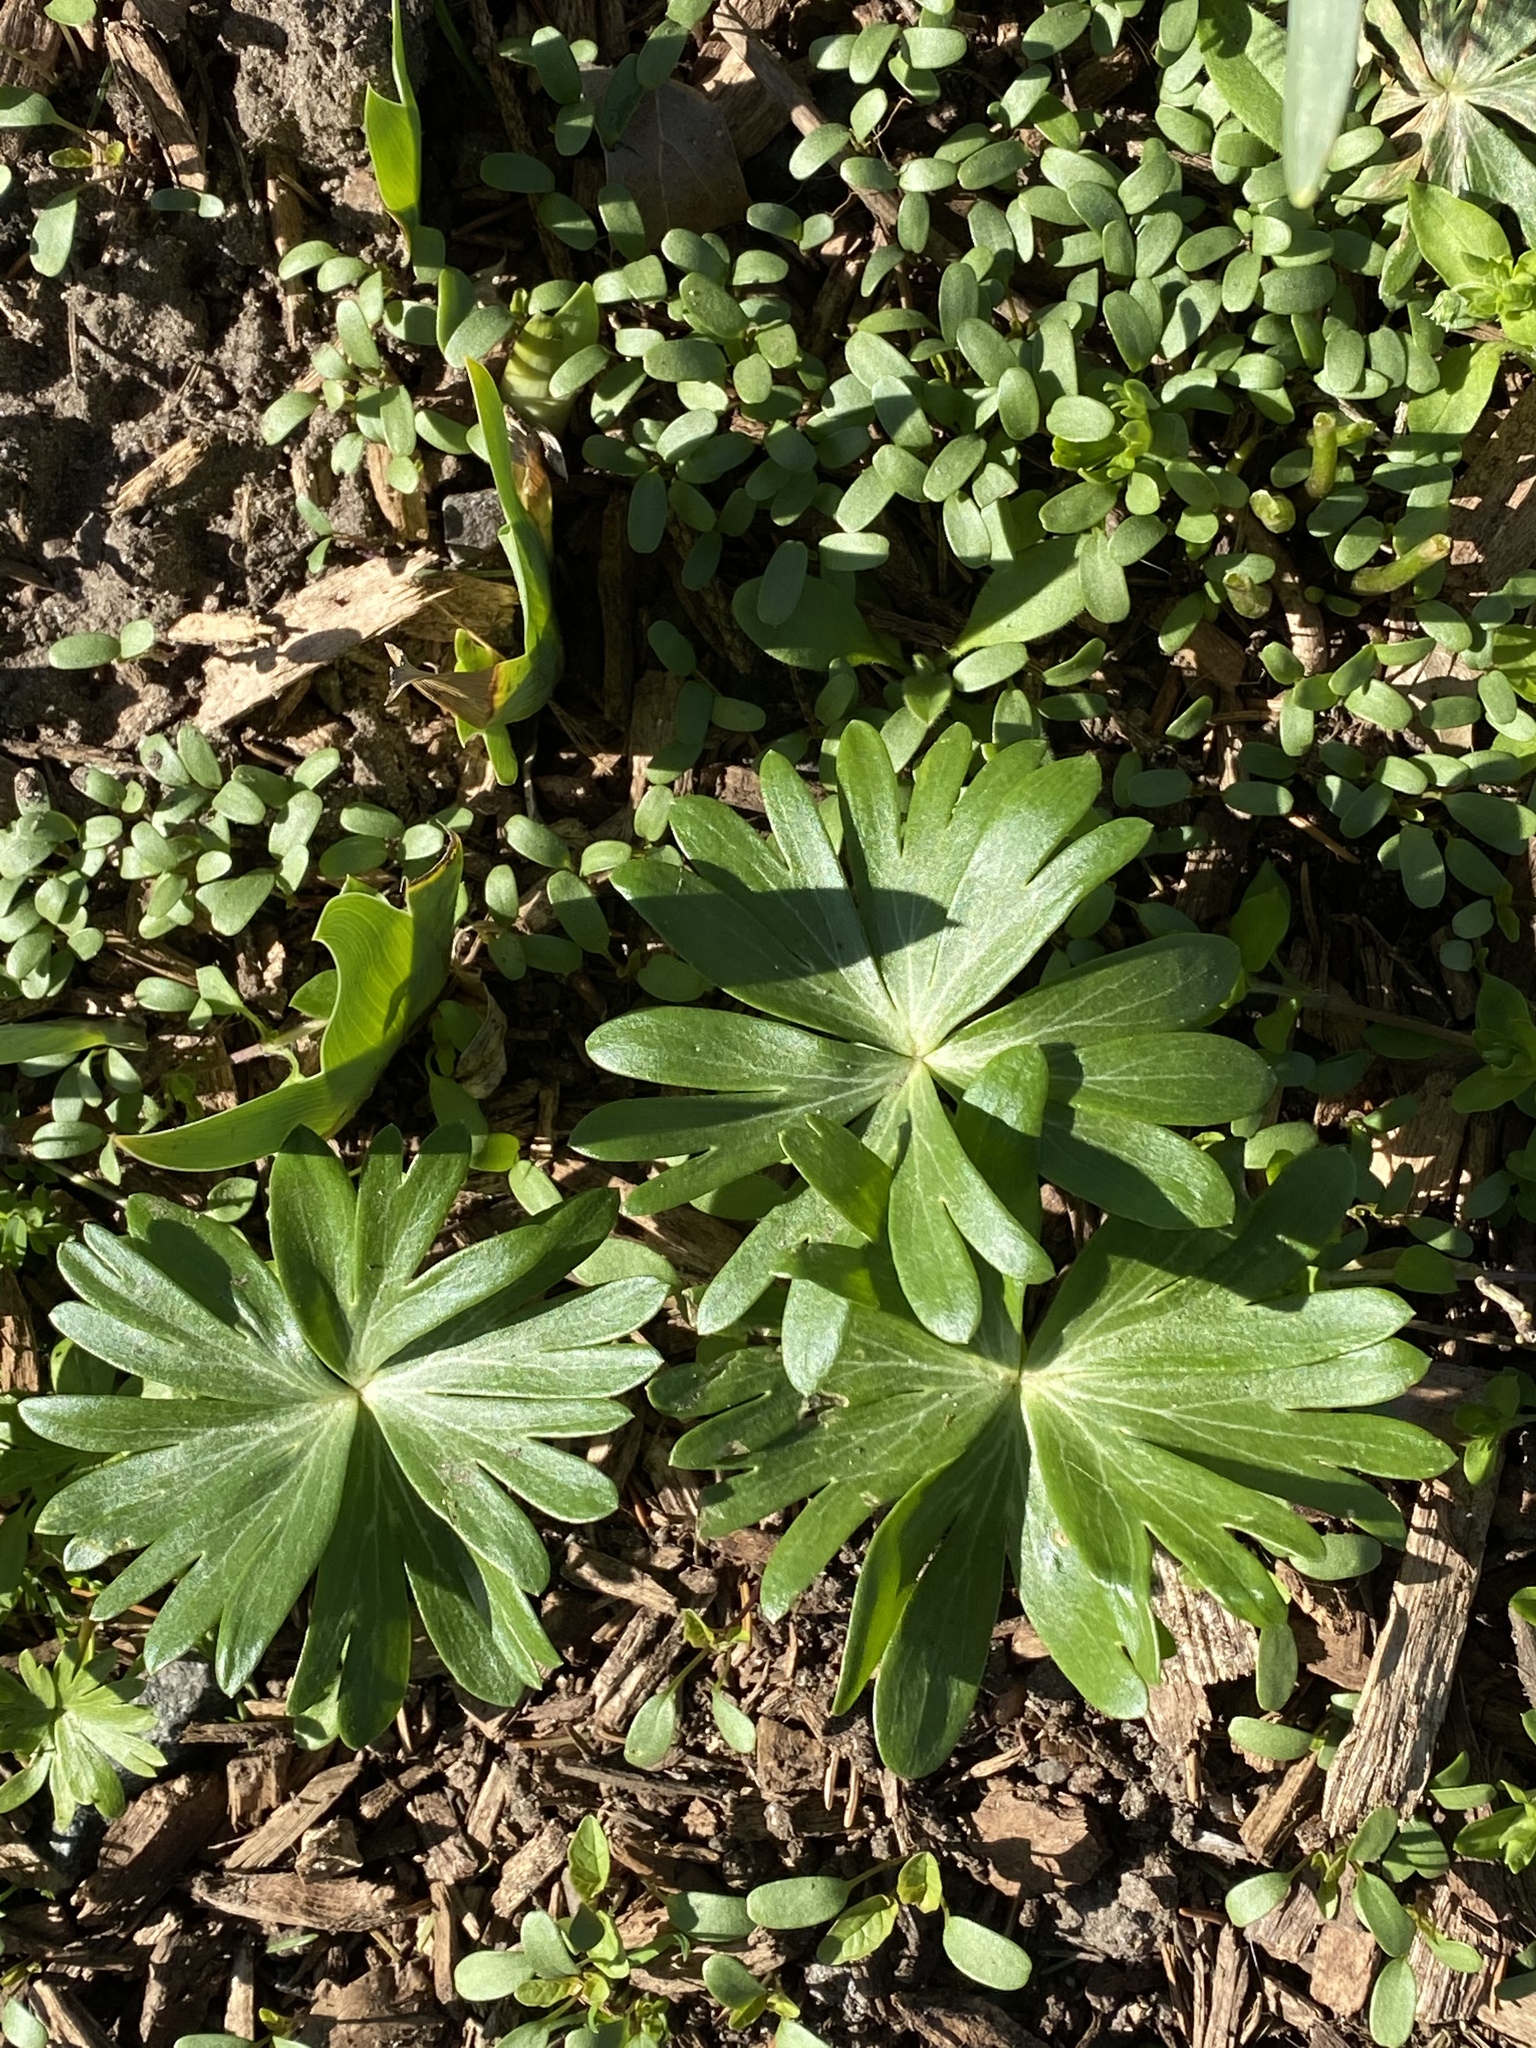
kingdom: Plantae
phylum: Tracheophyta
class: Magnoliopsida
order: Ranunculales
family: Ranunculaceae
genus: Eranthis
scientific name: Eranthis hyemalis
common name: Winter aconite
